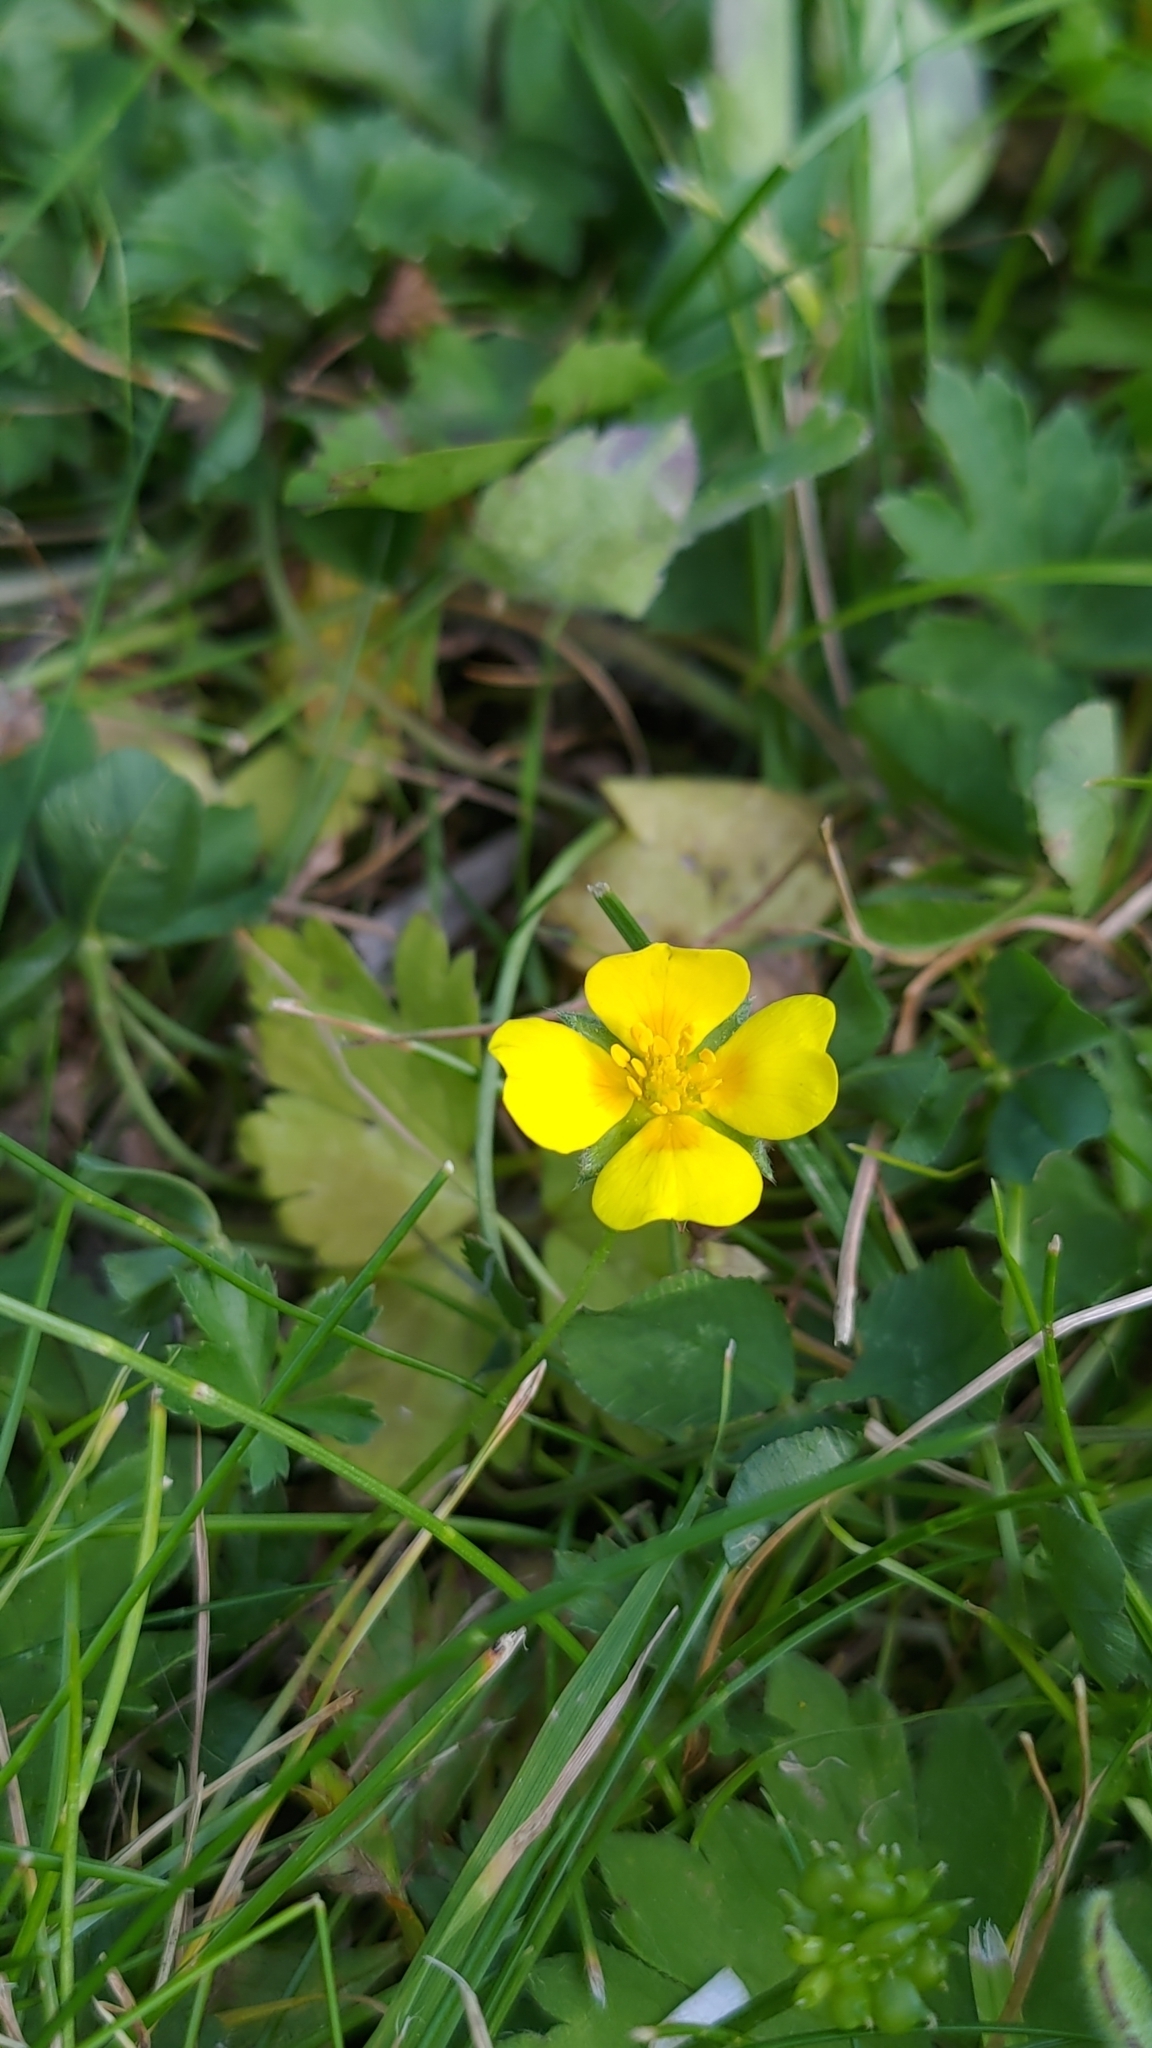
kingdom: Plantae
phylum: Tracheophyta
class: Magnoliopsida
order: Rosales
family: Rosaceae
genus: Potentilla
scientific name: Potentilla erecta
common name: Tormentil
